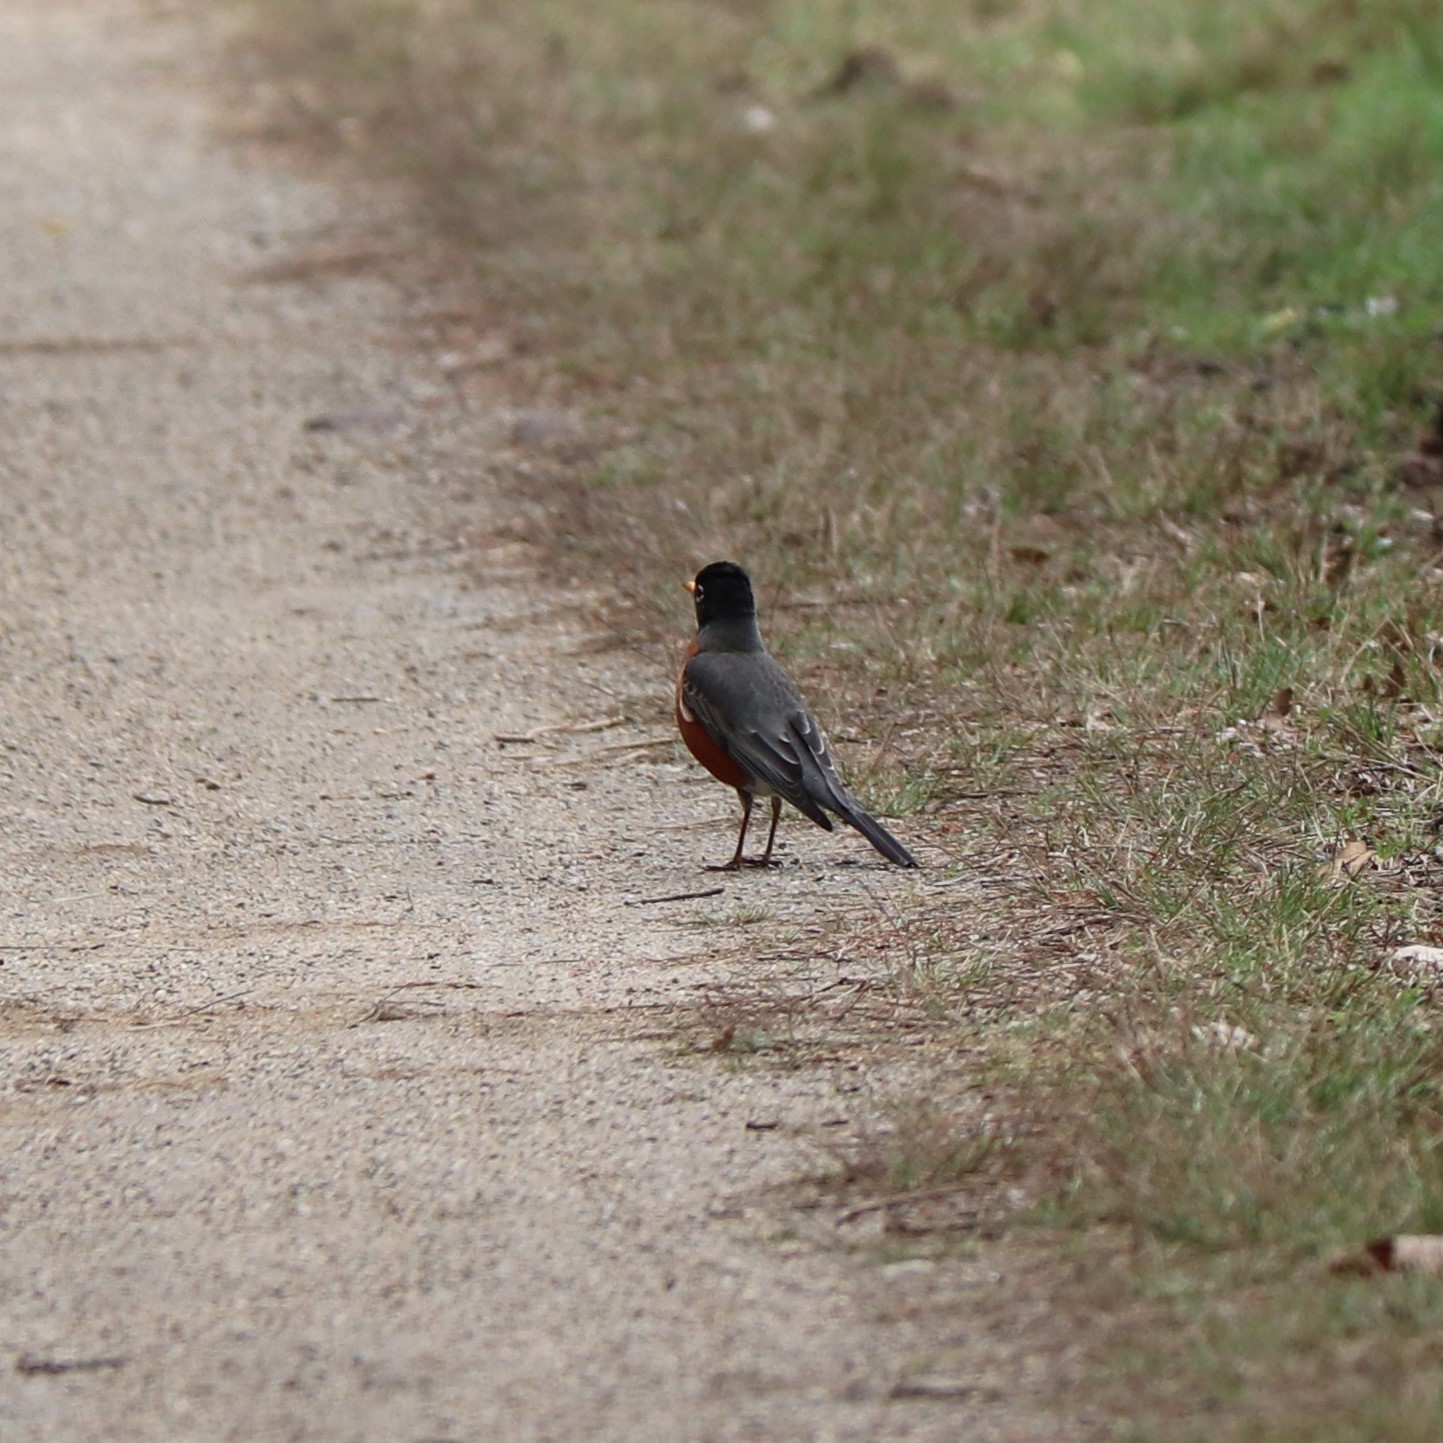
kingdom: Animalia
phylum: Chordata
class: Aves
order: Passeriformes
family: Turdidae
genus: Turdus
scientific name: Turdus migratorius
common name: American robin
